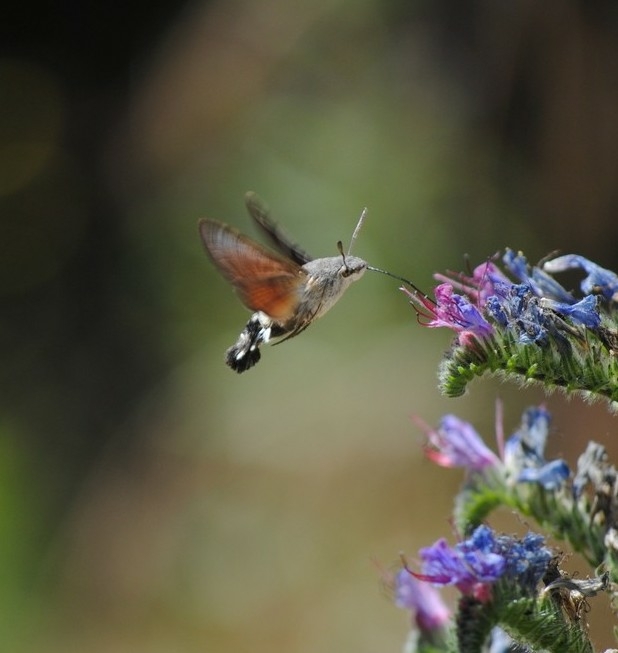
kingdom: Animalia
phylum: Arthropoda
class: Insecta
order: Lepidoptera
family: Sphingidae
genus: Macroglossum
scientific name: Macroglossum stellatarum
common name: Humming-bird hawk-moth
